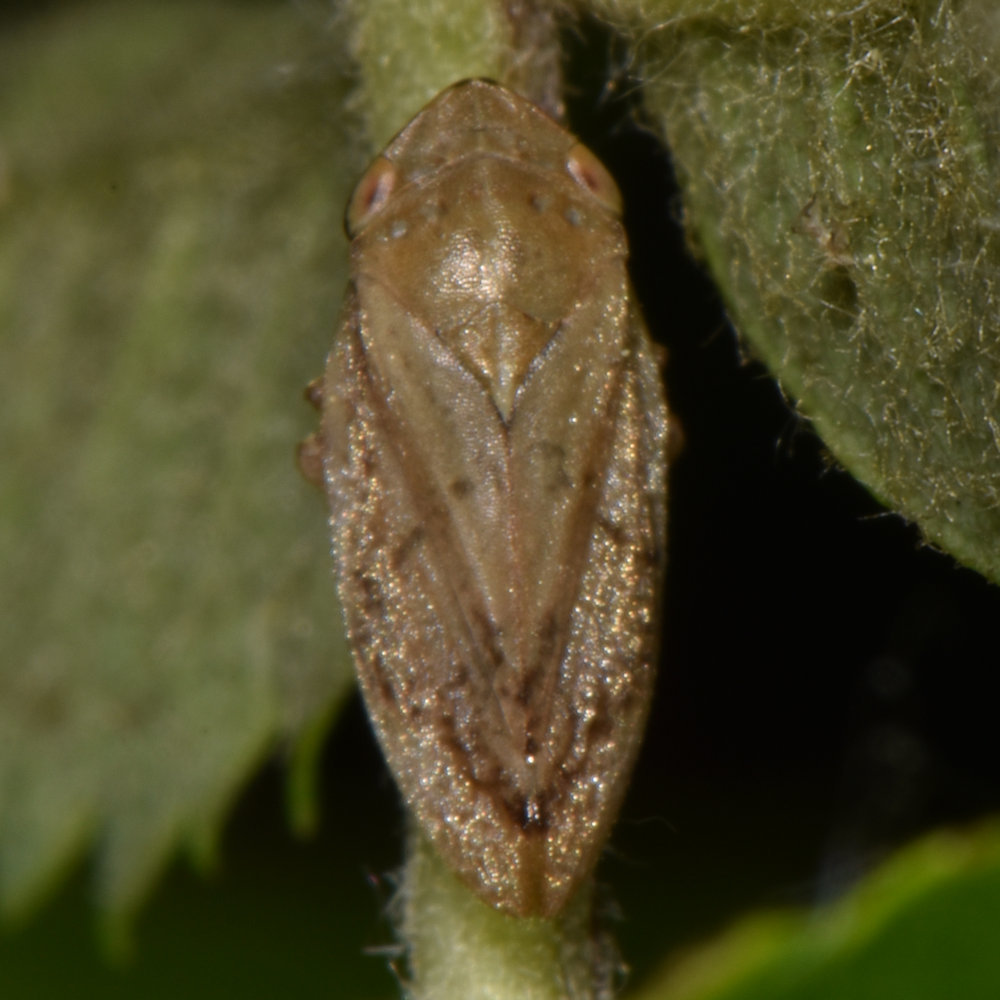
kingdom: Animalia
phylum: Arthropoda
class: Insecta
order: Hemiptera
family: Aphrophoridae
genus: Philaenus
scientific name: Philaenus spumarius
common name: Meadow spittlebug
